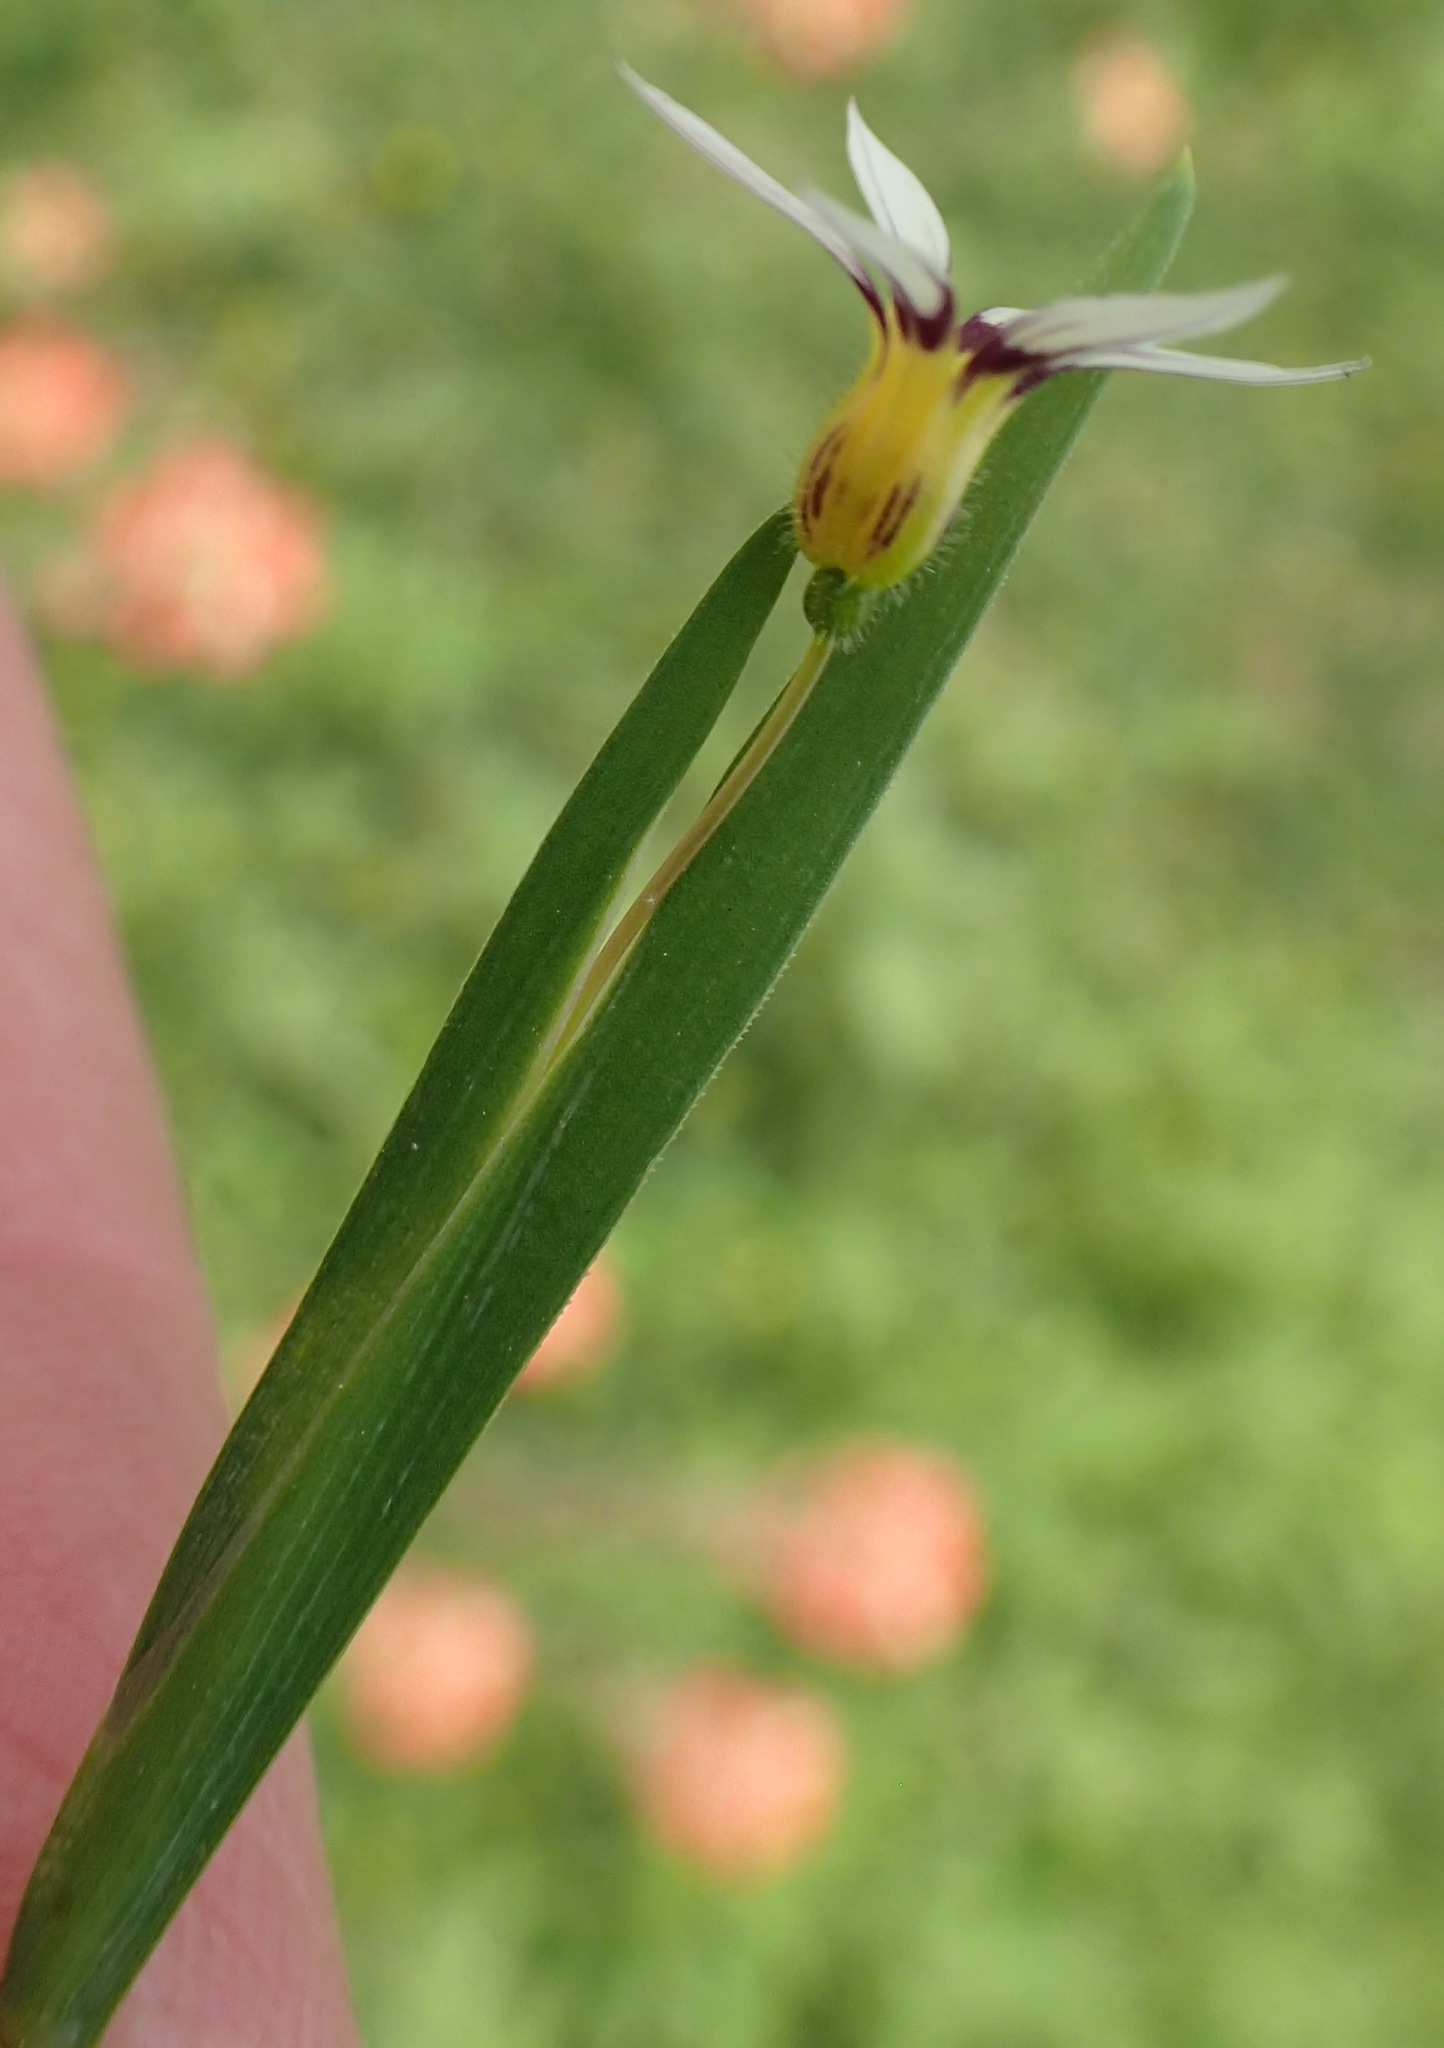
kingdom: Plantae
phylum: Tracheophyta
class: Liliopsida
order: Asparagales
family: Iridaceae
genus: Sisyrinchium
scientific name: Sisyrinchium micranthum
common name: Bermuda pigroot
